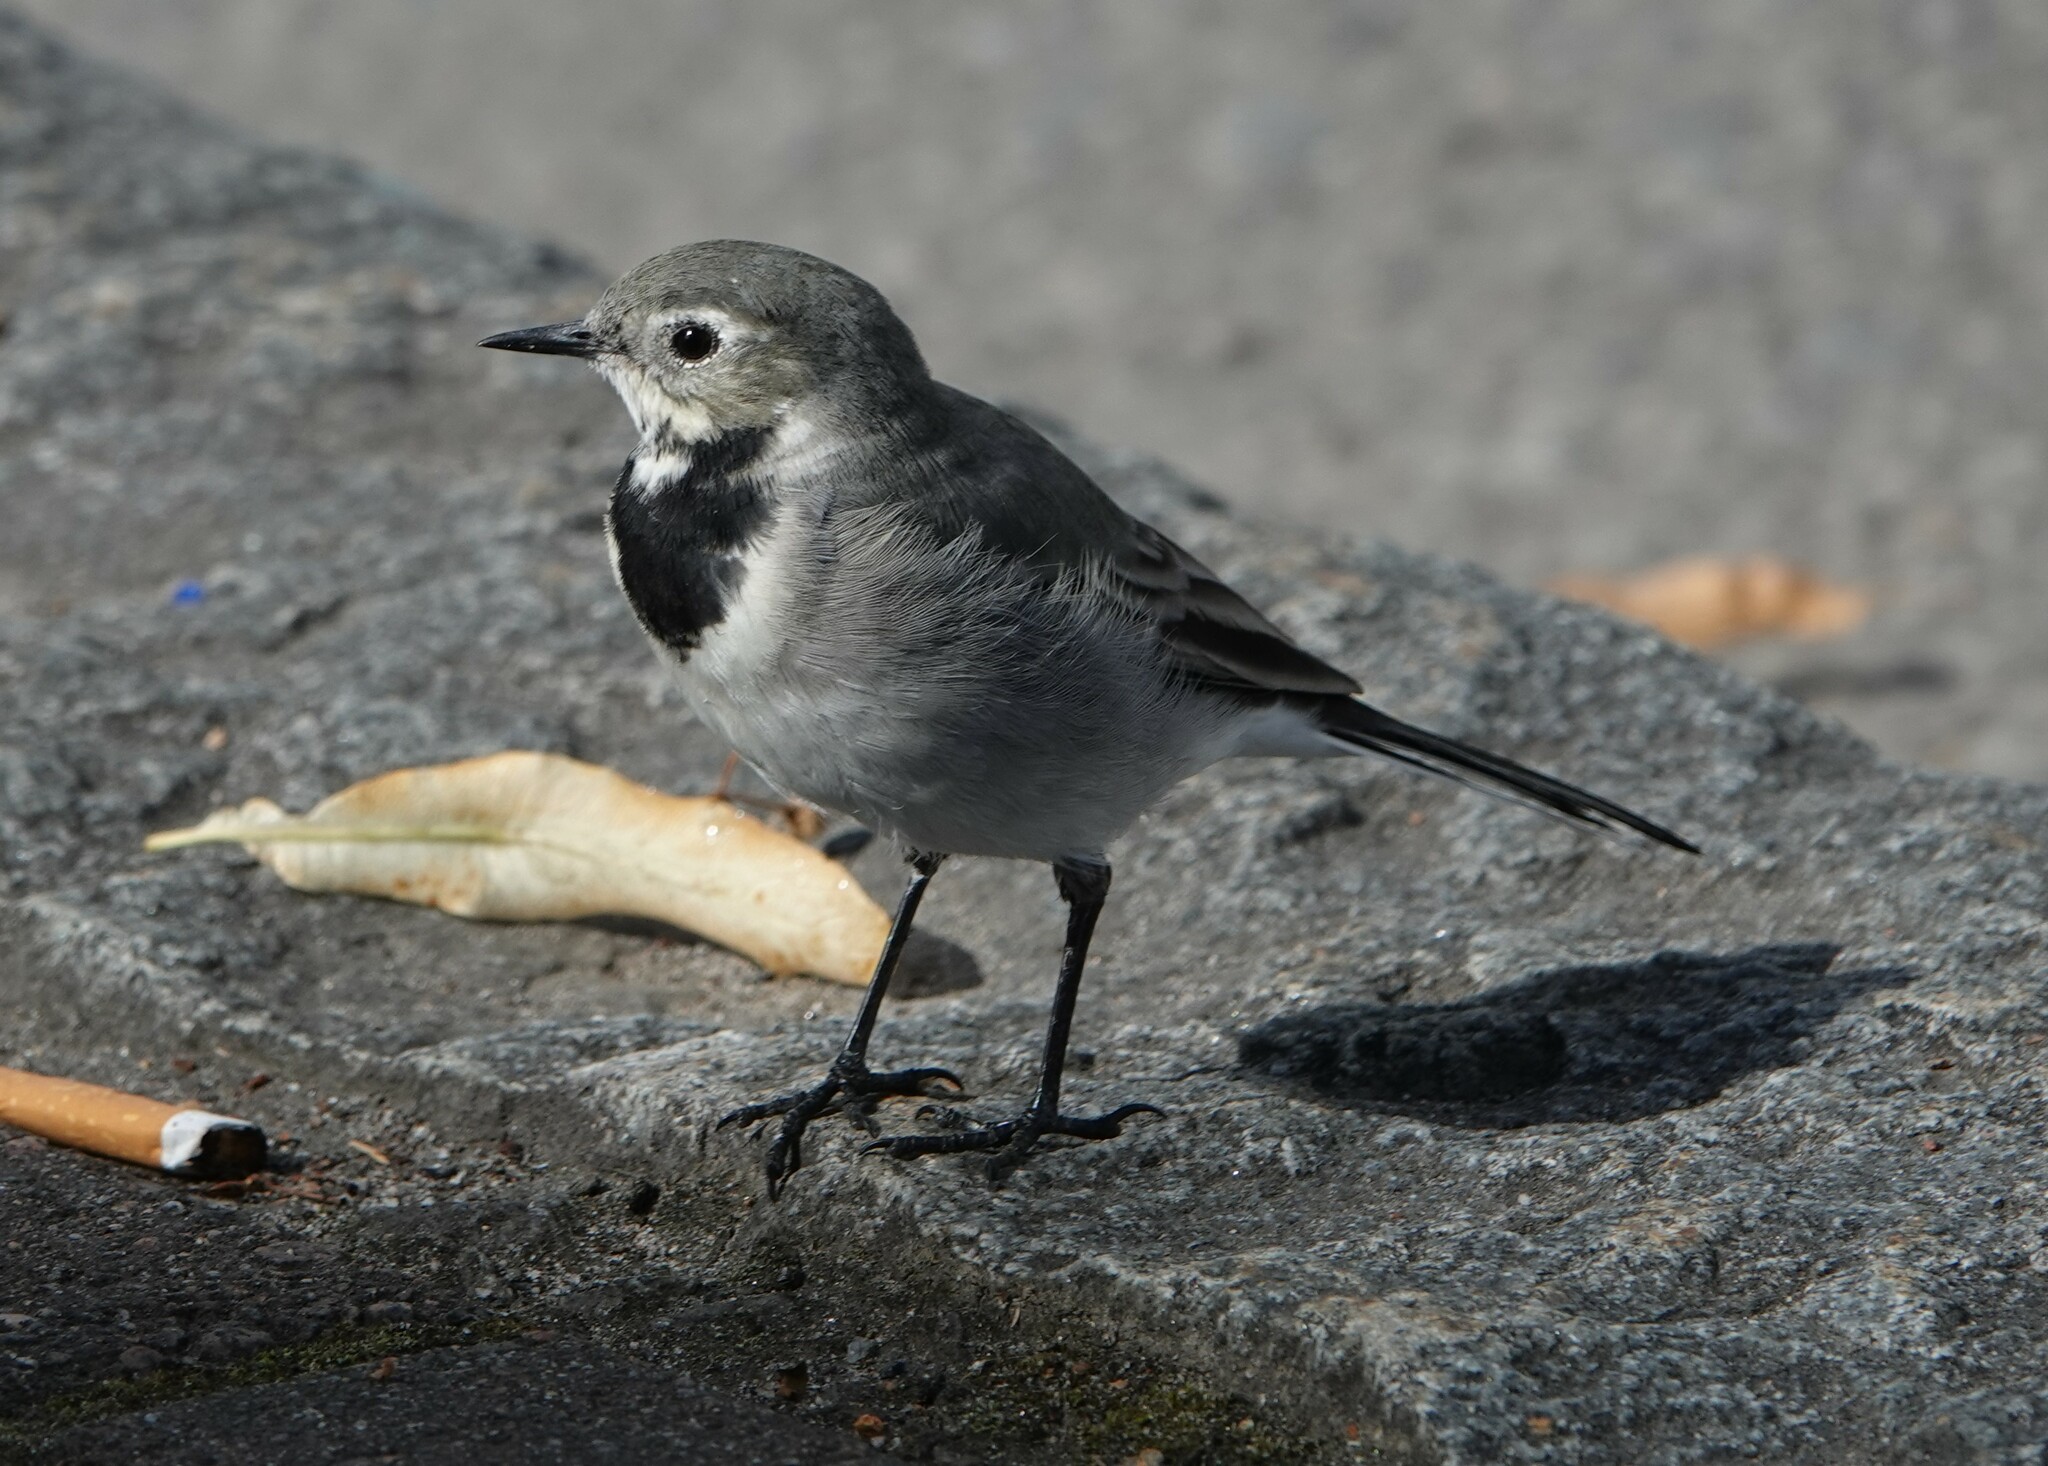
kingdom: Animalia
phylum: Chordata
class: Aves
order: Passeriformes
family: Motacillidae
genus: Motacilla
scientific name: Motacilla alba
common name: White wagtail
